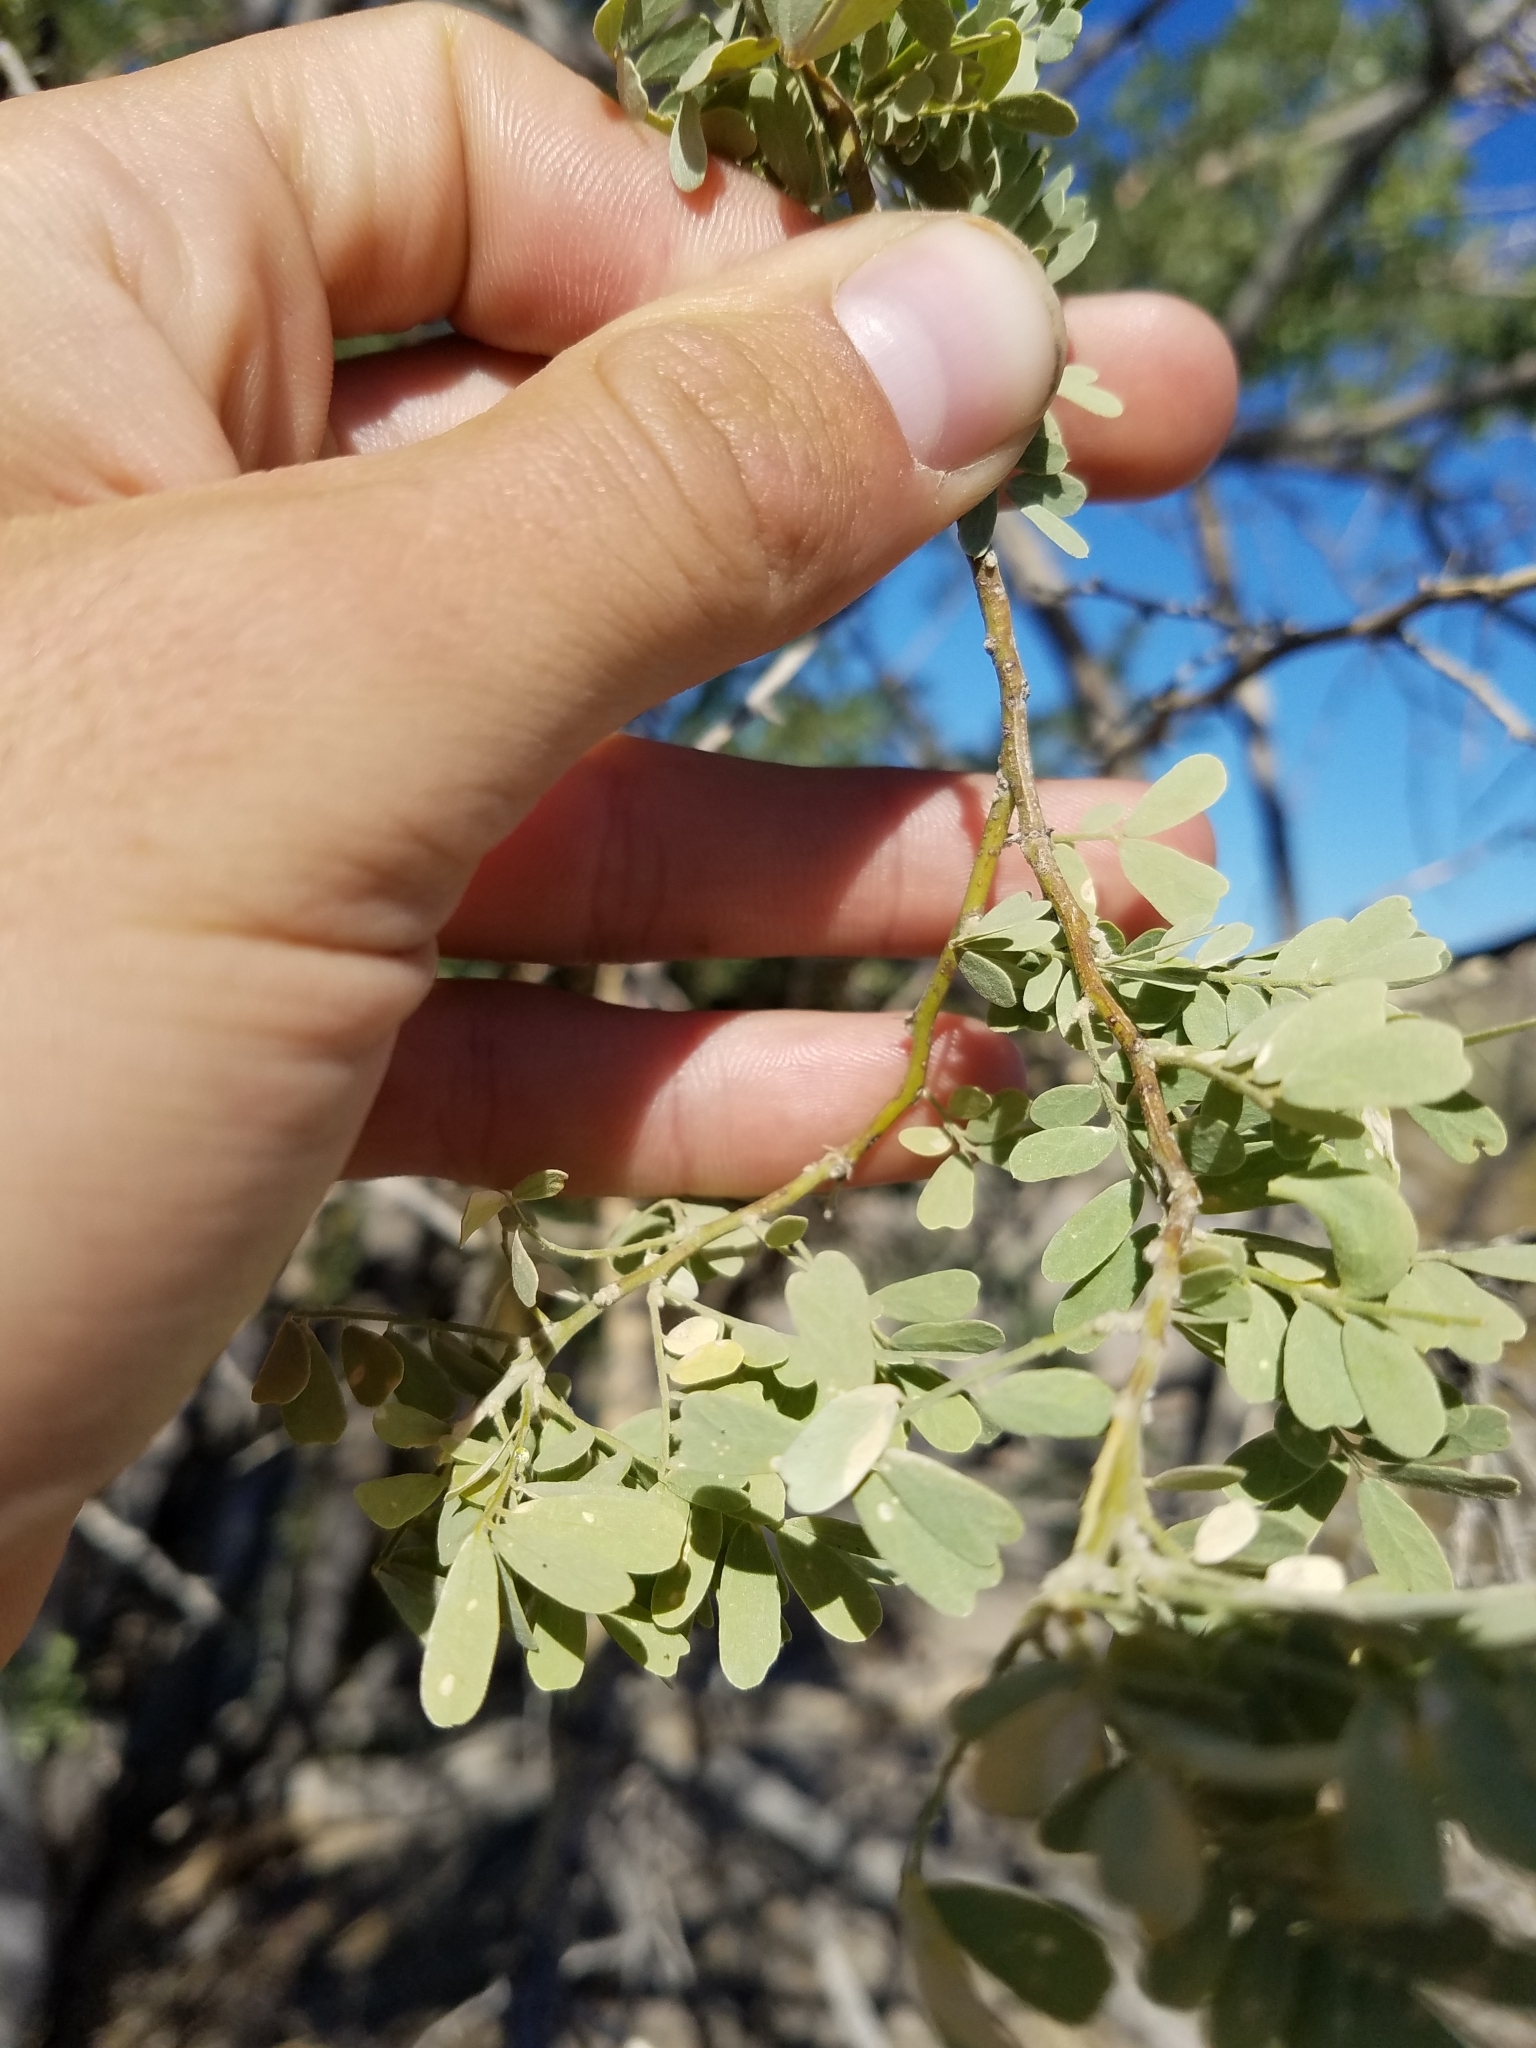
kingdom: Plantae
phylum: Tracheophyta
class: Magnoliopsida
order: Fabales
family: Fabaceae
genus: Olneya
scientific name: Olneya tesota
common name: Desert ironwood
